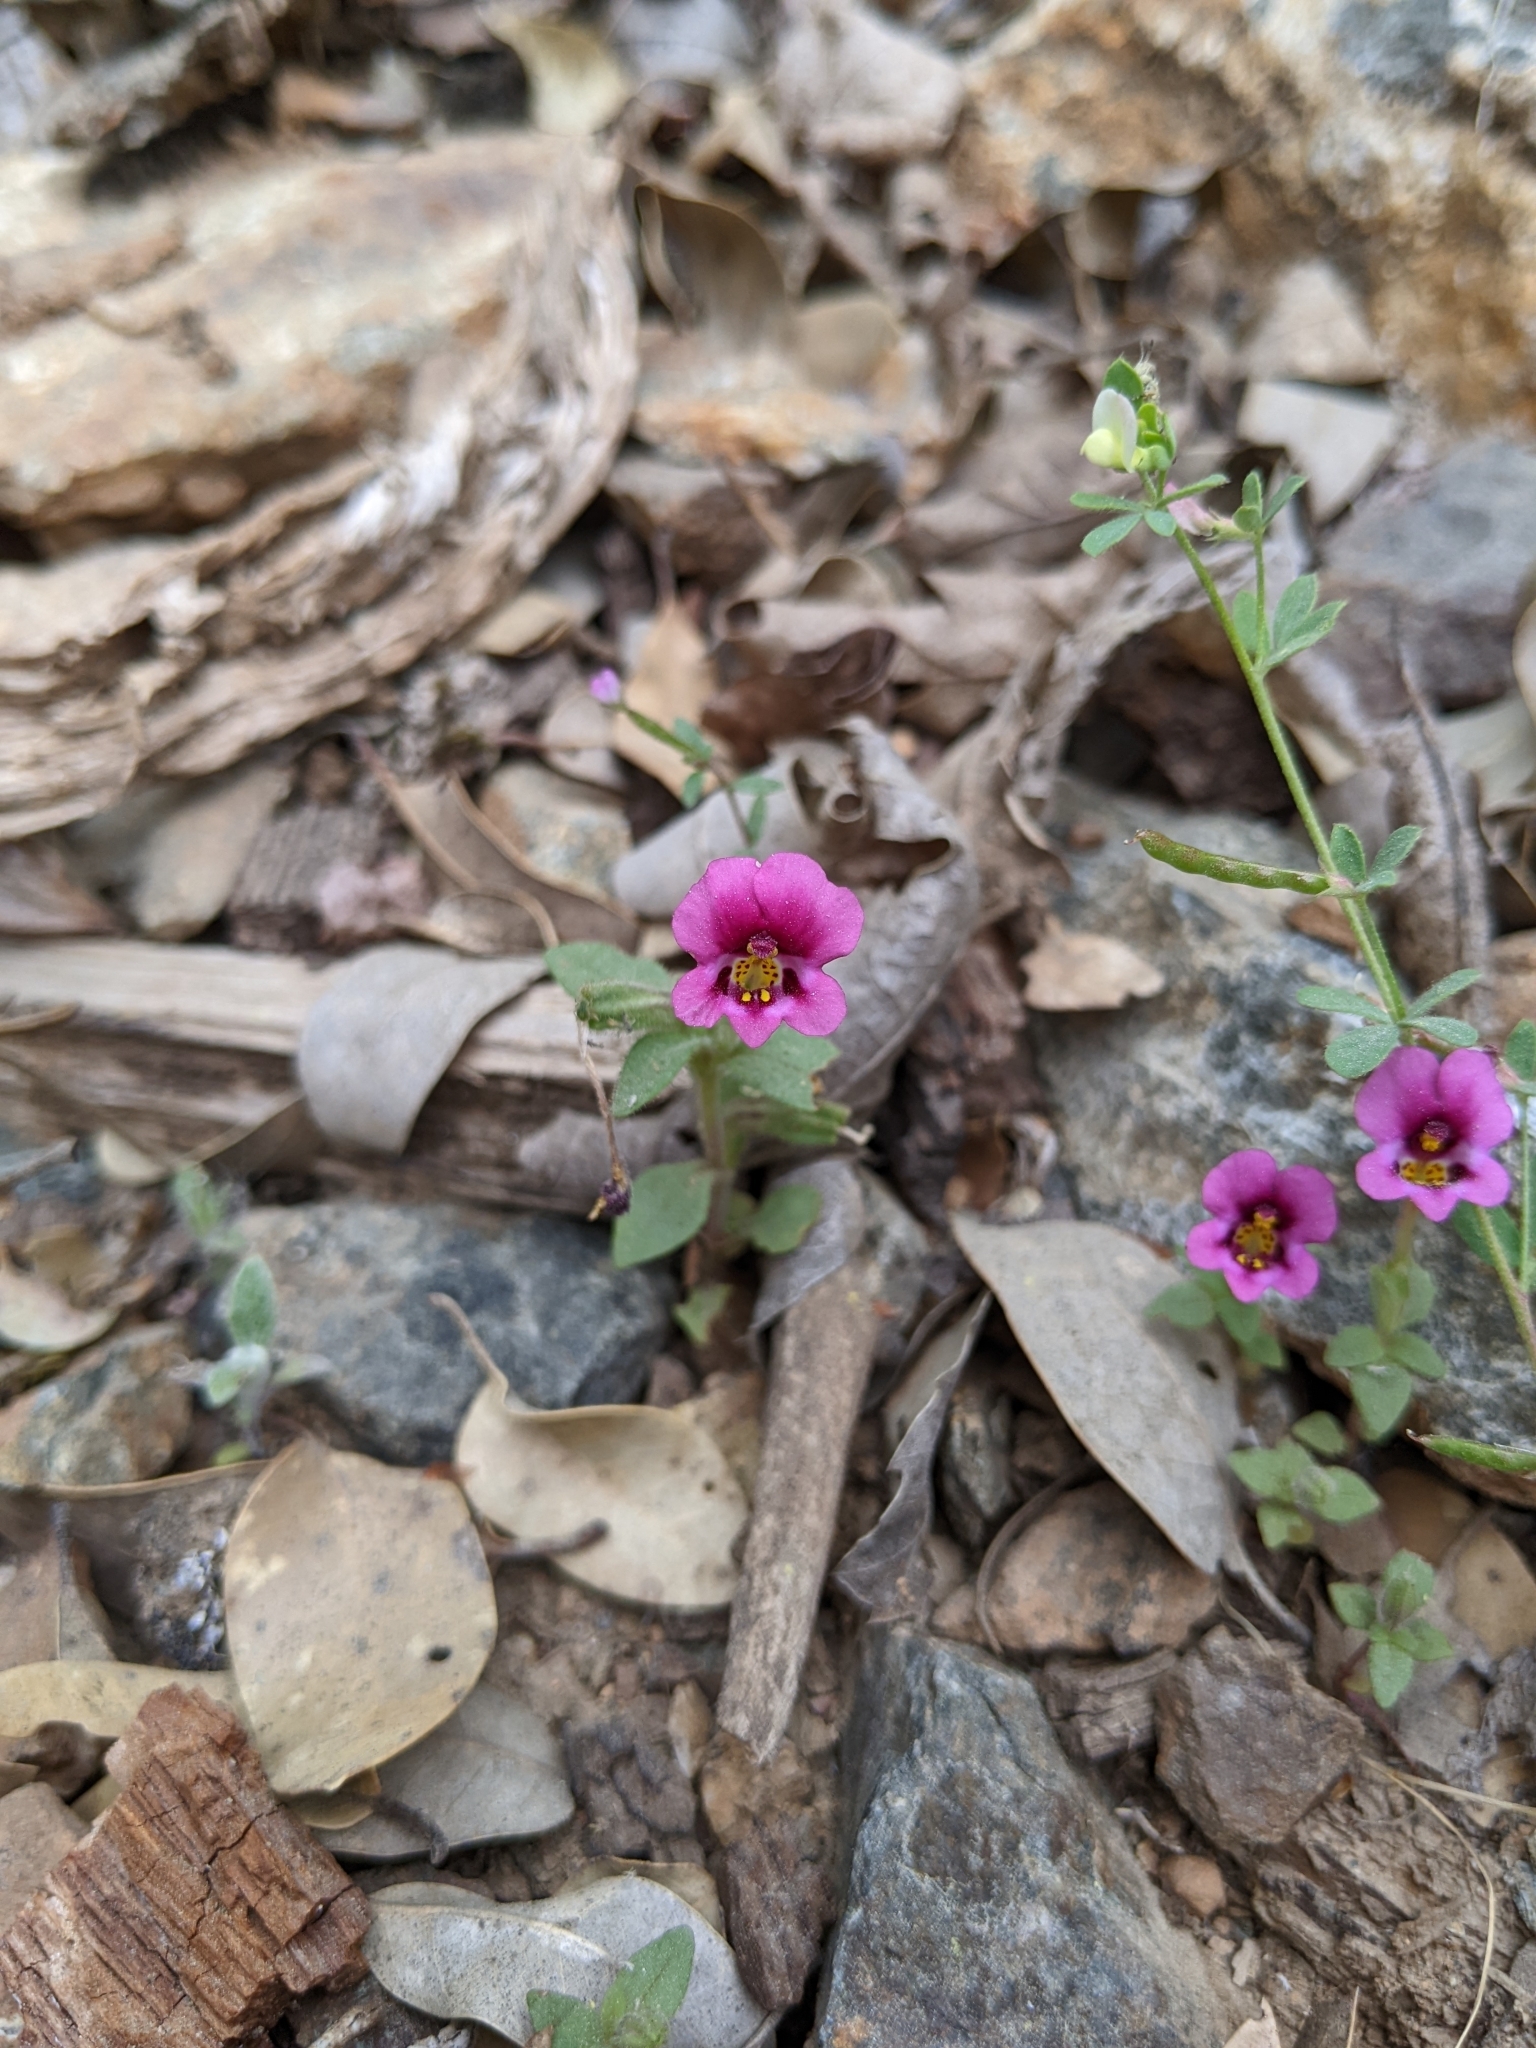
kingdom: Plantae
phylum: Tracheophyta
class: Magnoliopsida
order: Lamiales
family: Phrymaceae
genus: Diplacus
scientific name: Diplacus kelloggii
